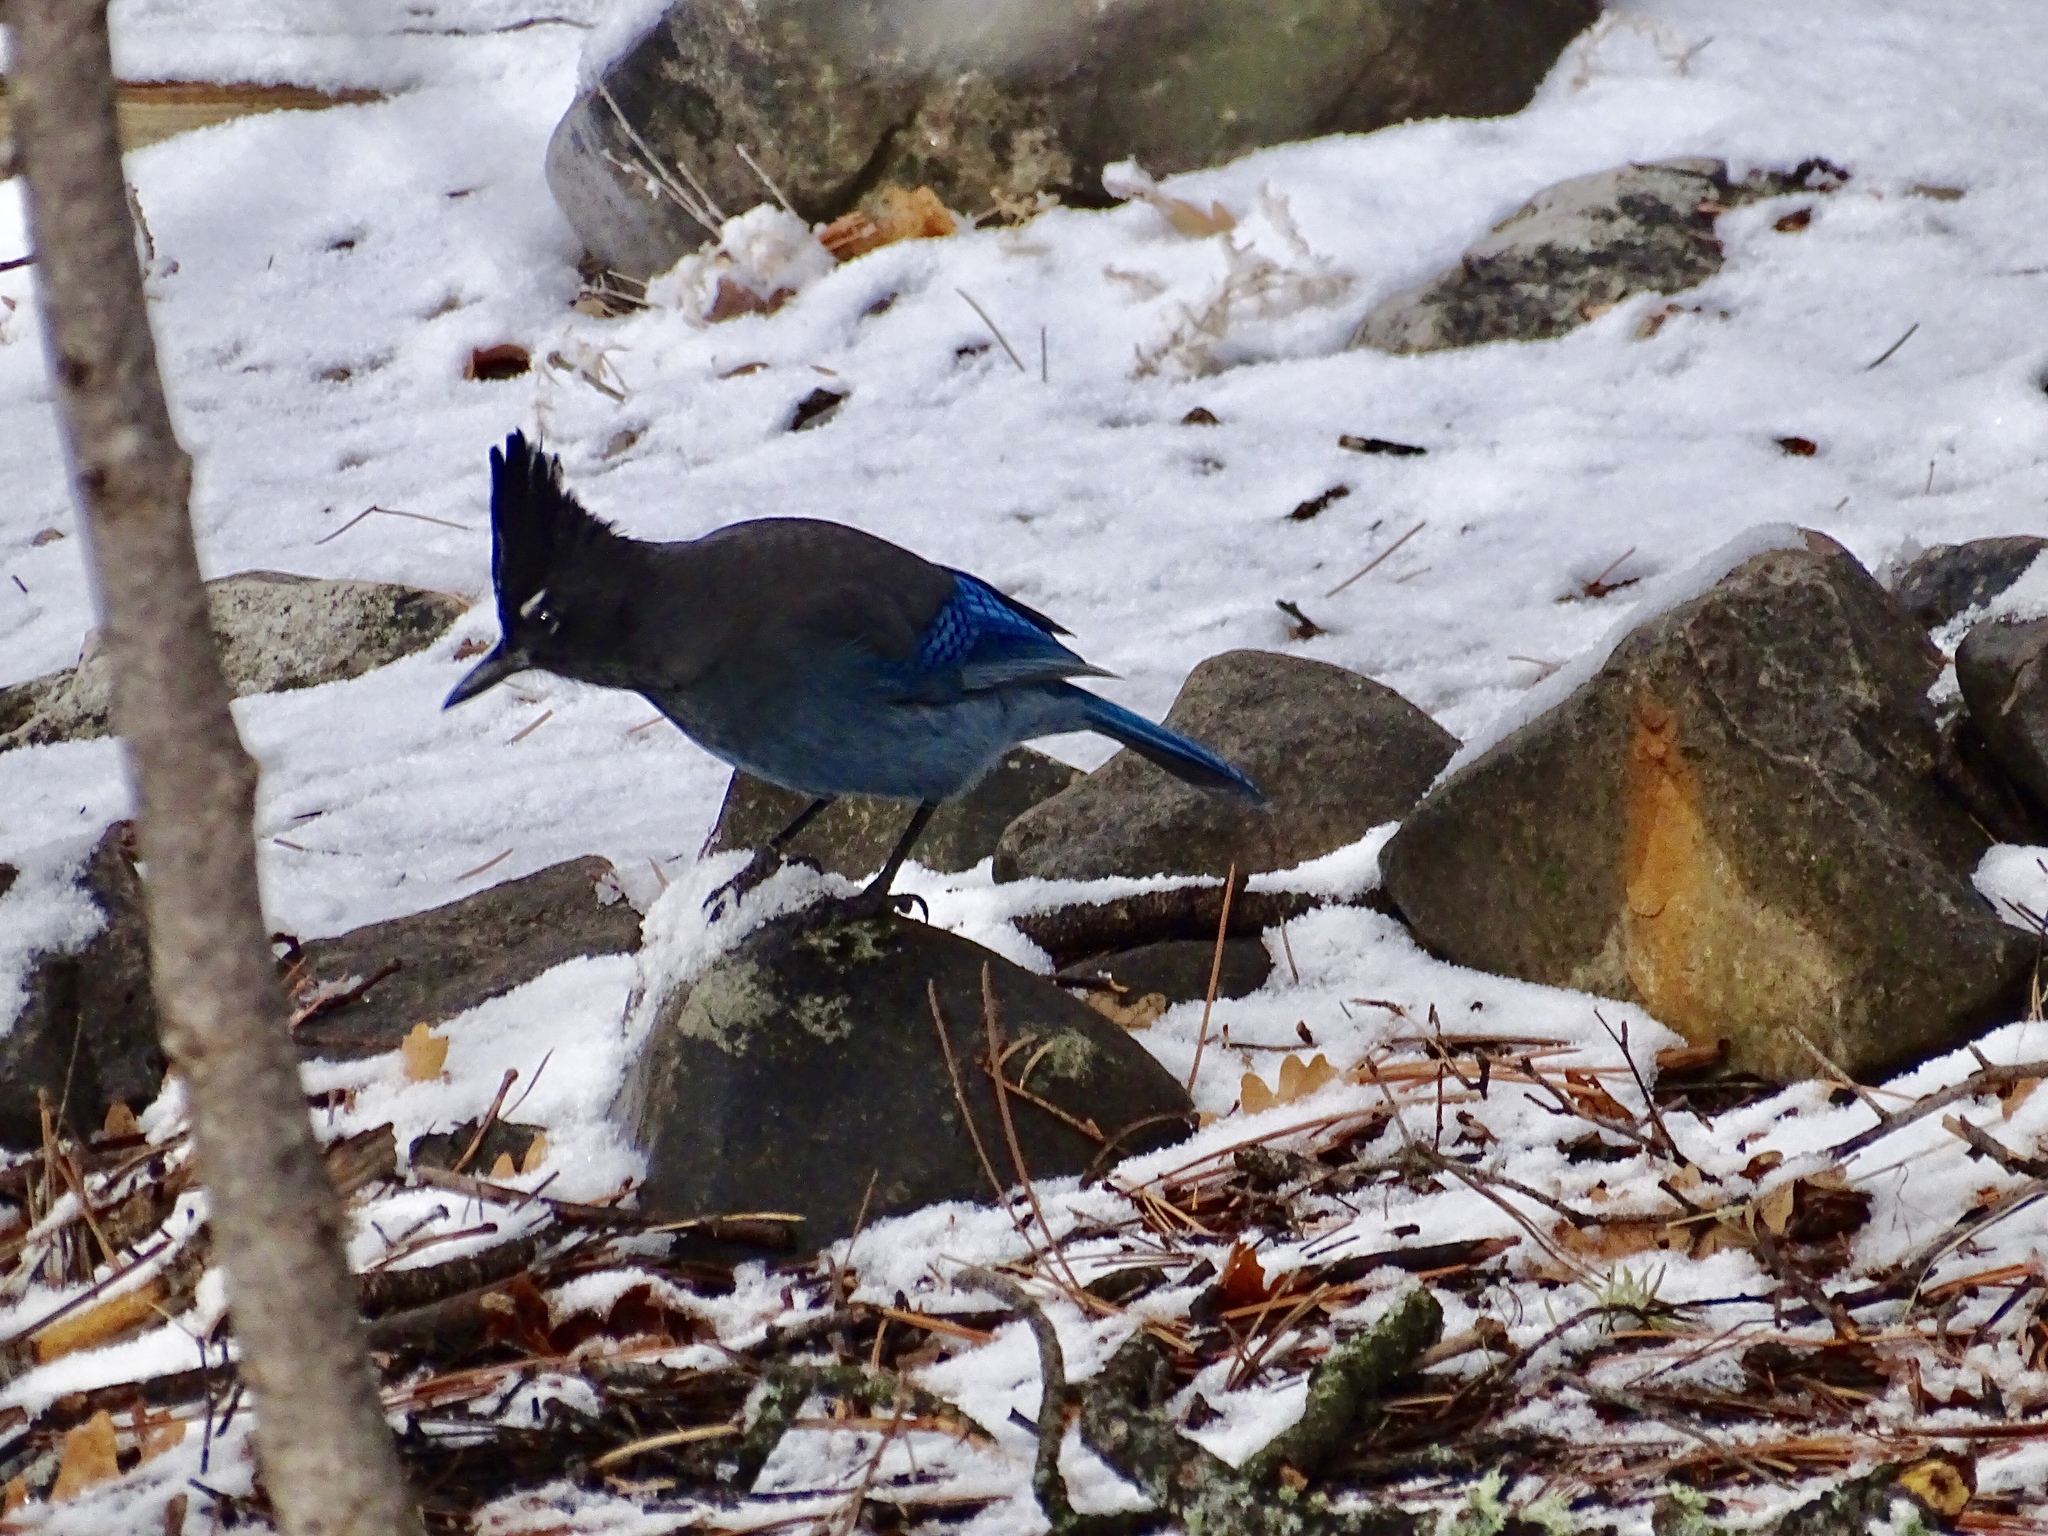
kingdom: Animalia
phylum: Chordata
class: Aves
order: Passeriformes
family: Corvidae
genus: Cyanocitta
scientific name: Cyanocitta stelleri
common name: Steller's jay
